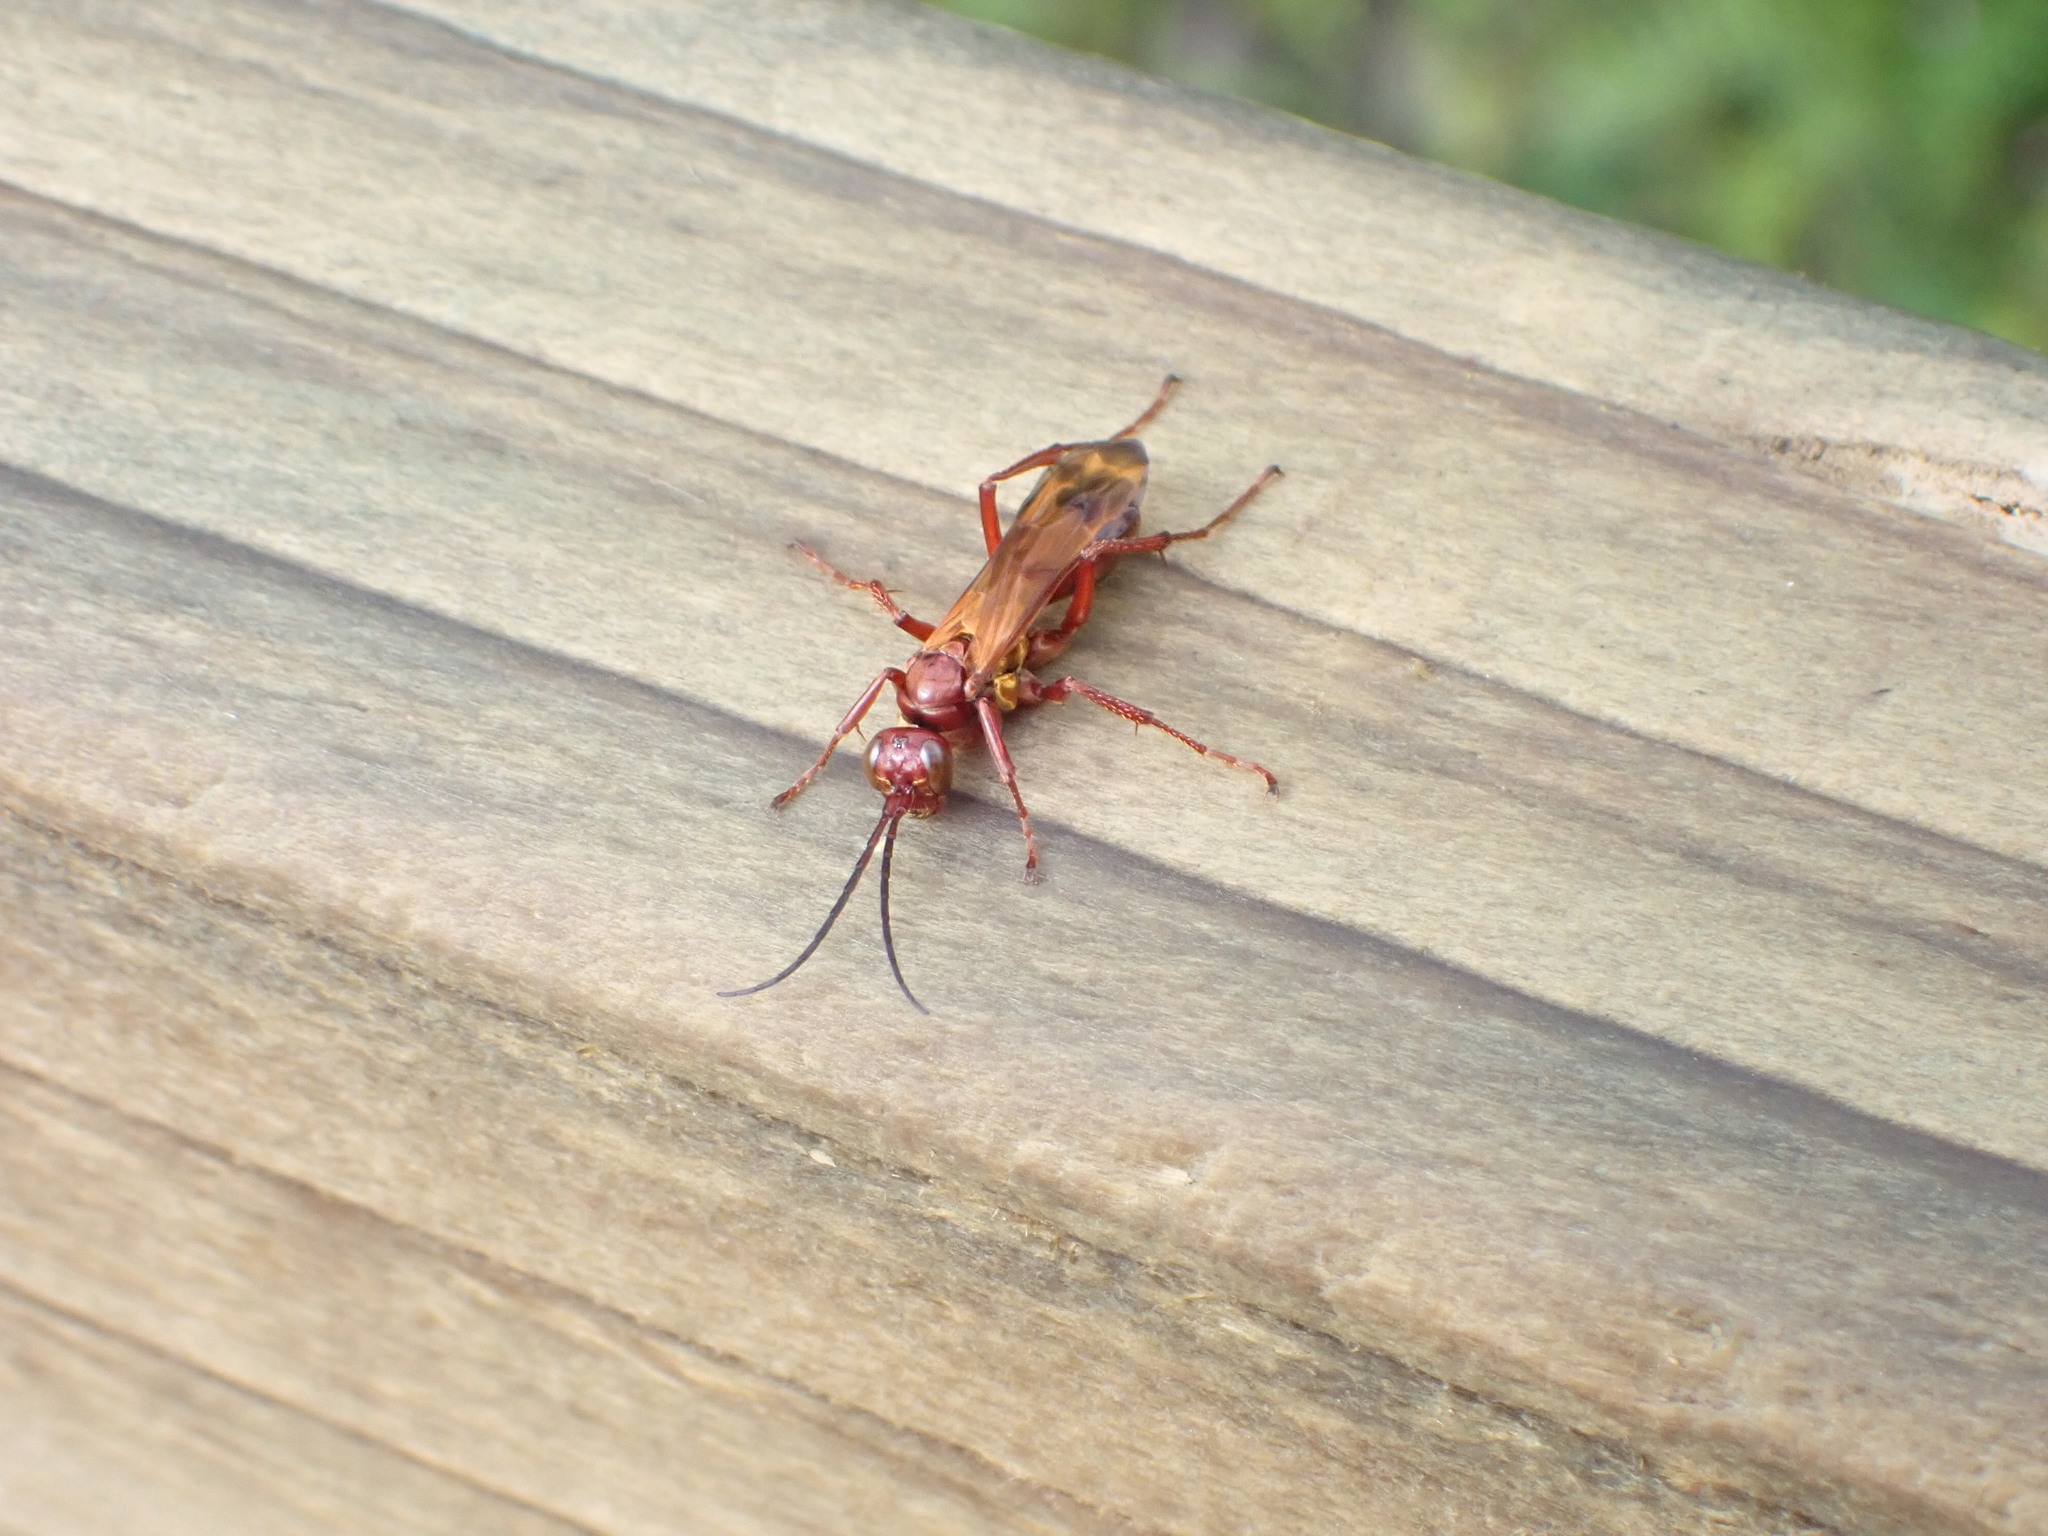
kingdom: Animalia
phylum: Arthropoda
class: Insecta
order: Hymenoptera
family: Pompilidae
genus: Sphictostethus
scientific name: Sphictostethus nitidus
